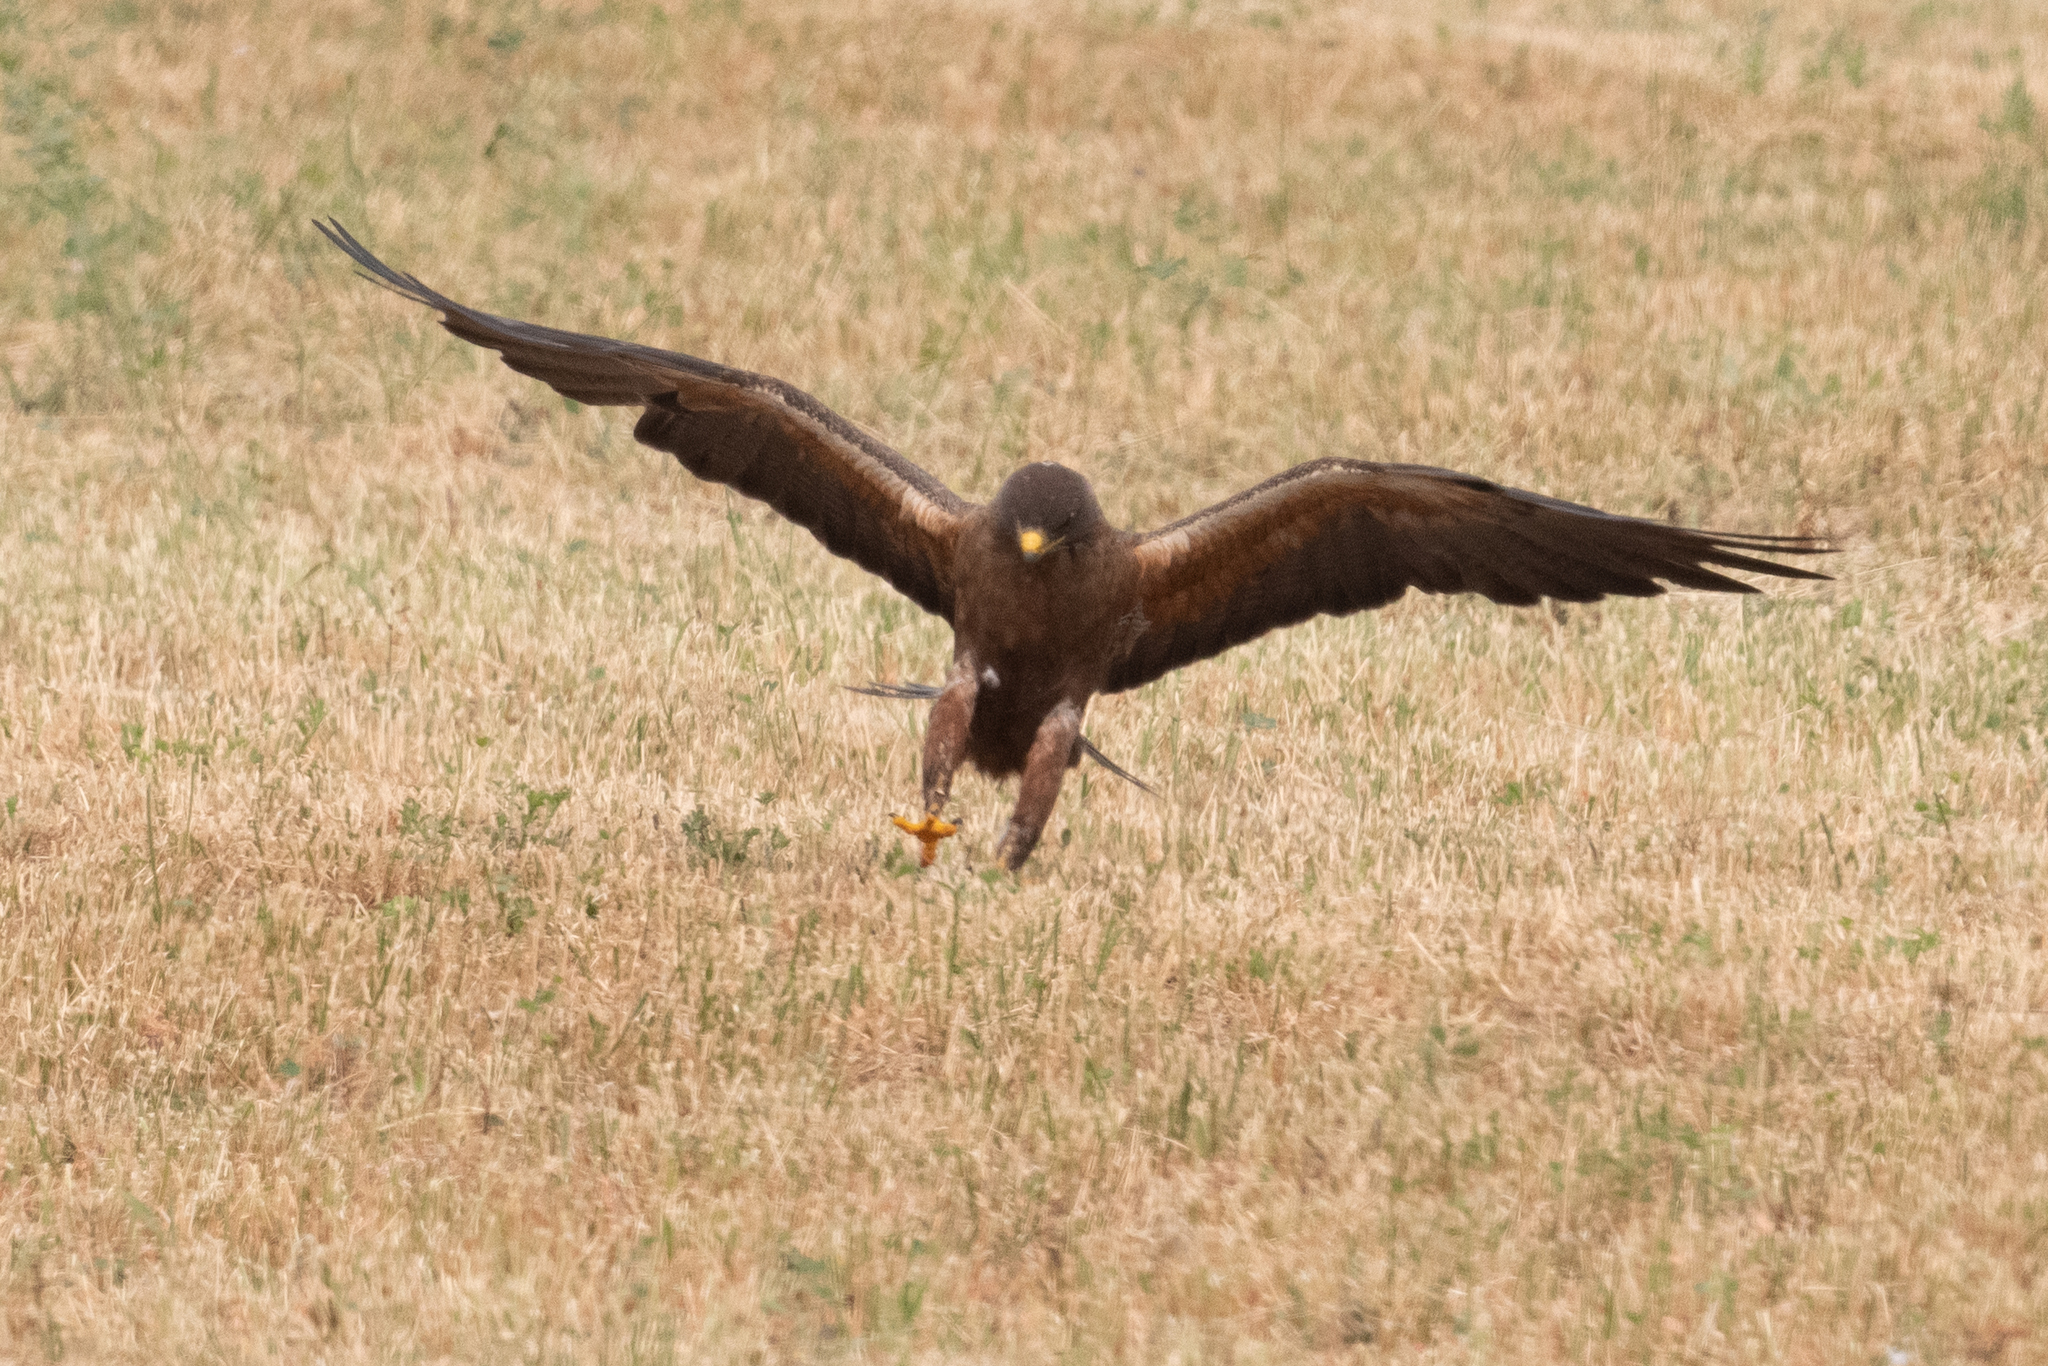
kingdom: Animalia
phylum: Chordata
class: Aves
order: Accipitriformes
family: Accipitridae
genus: Buteo
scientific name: Buteo swainsoni
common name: Swainson's hawk
